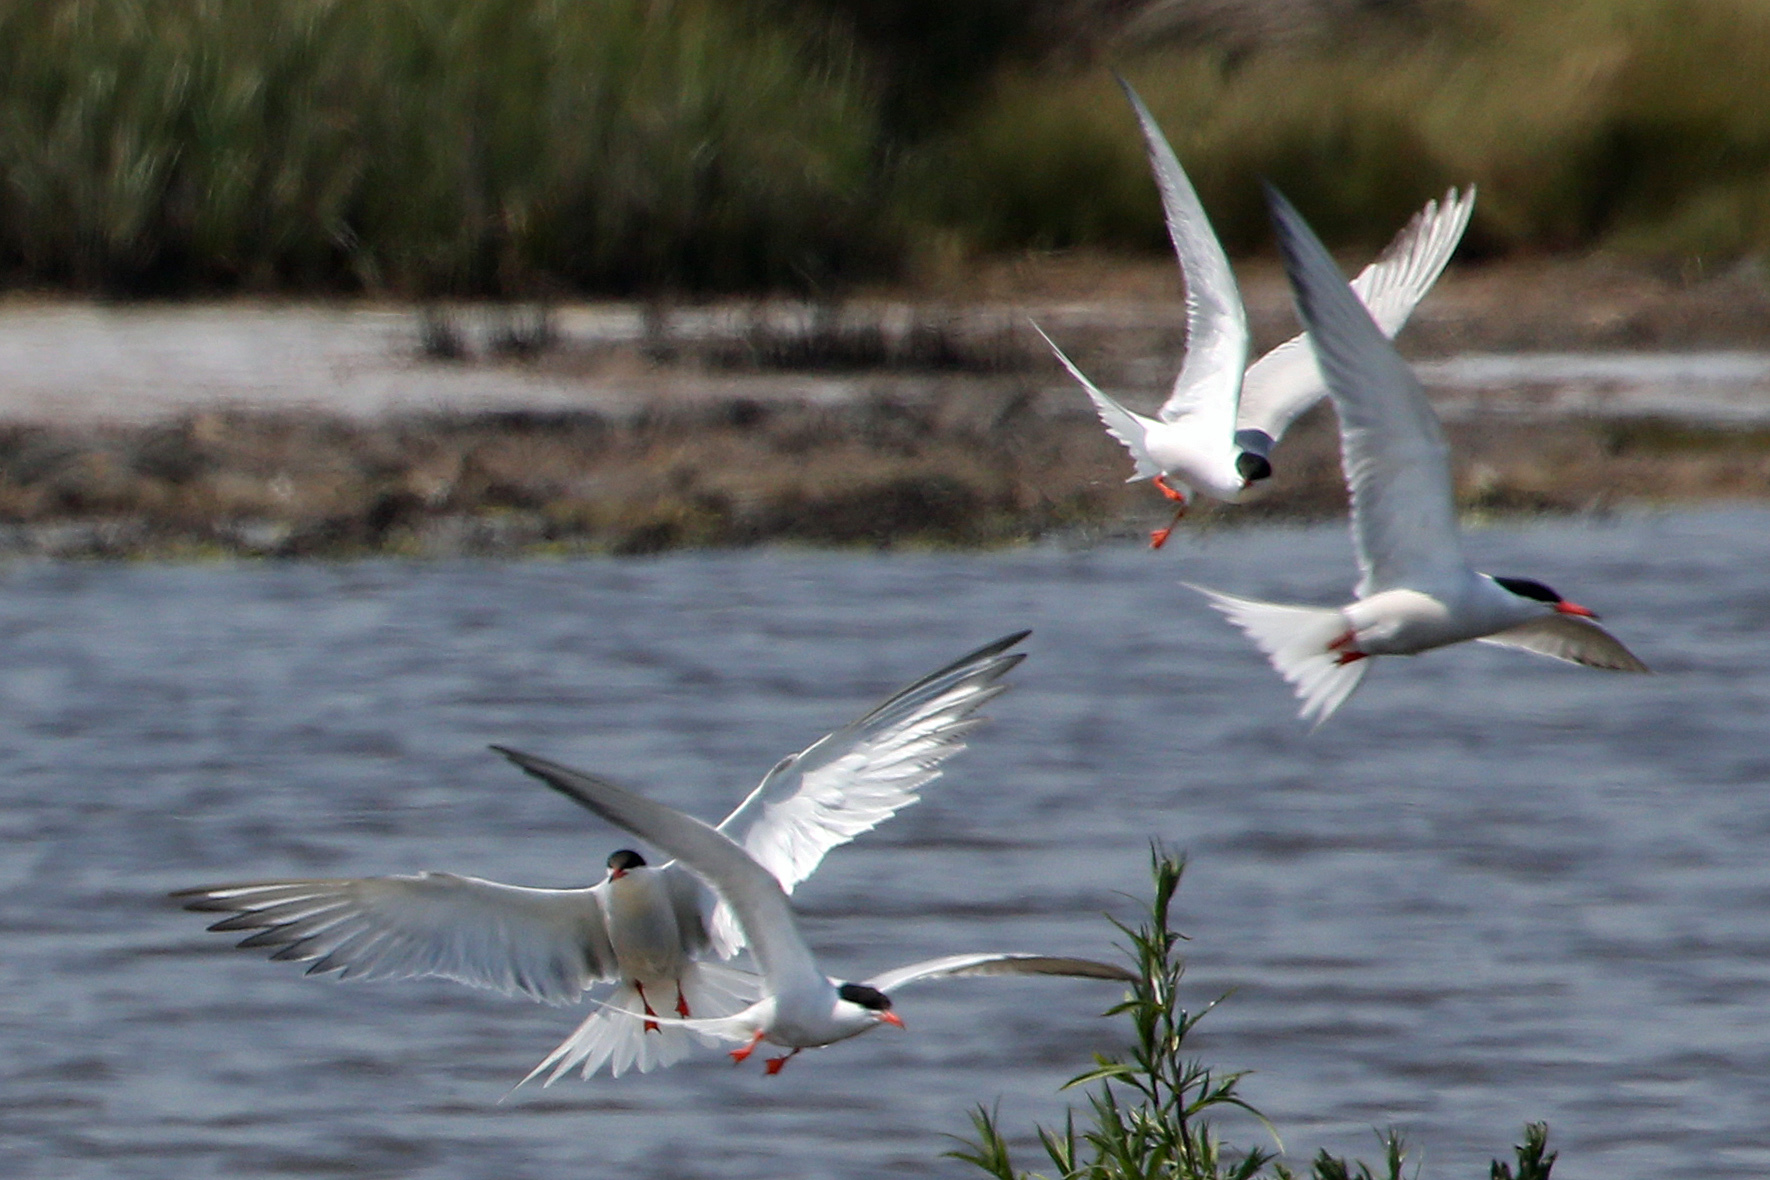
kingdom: Animalia
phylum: Chordata
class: Aves
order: Charadriiformes
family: Laridae
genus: Sterna
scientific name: Sterna hirundo
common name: Common tern
